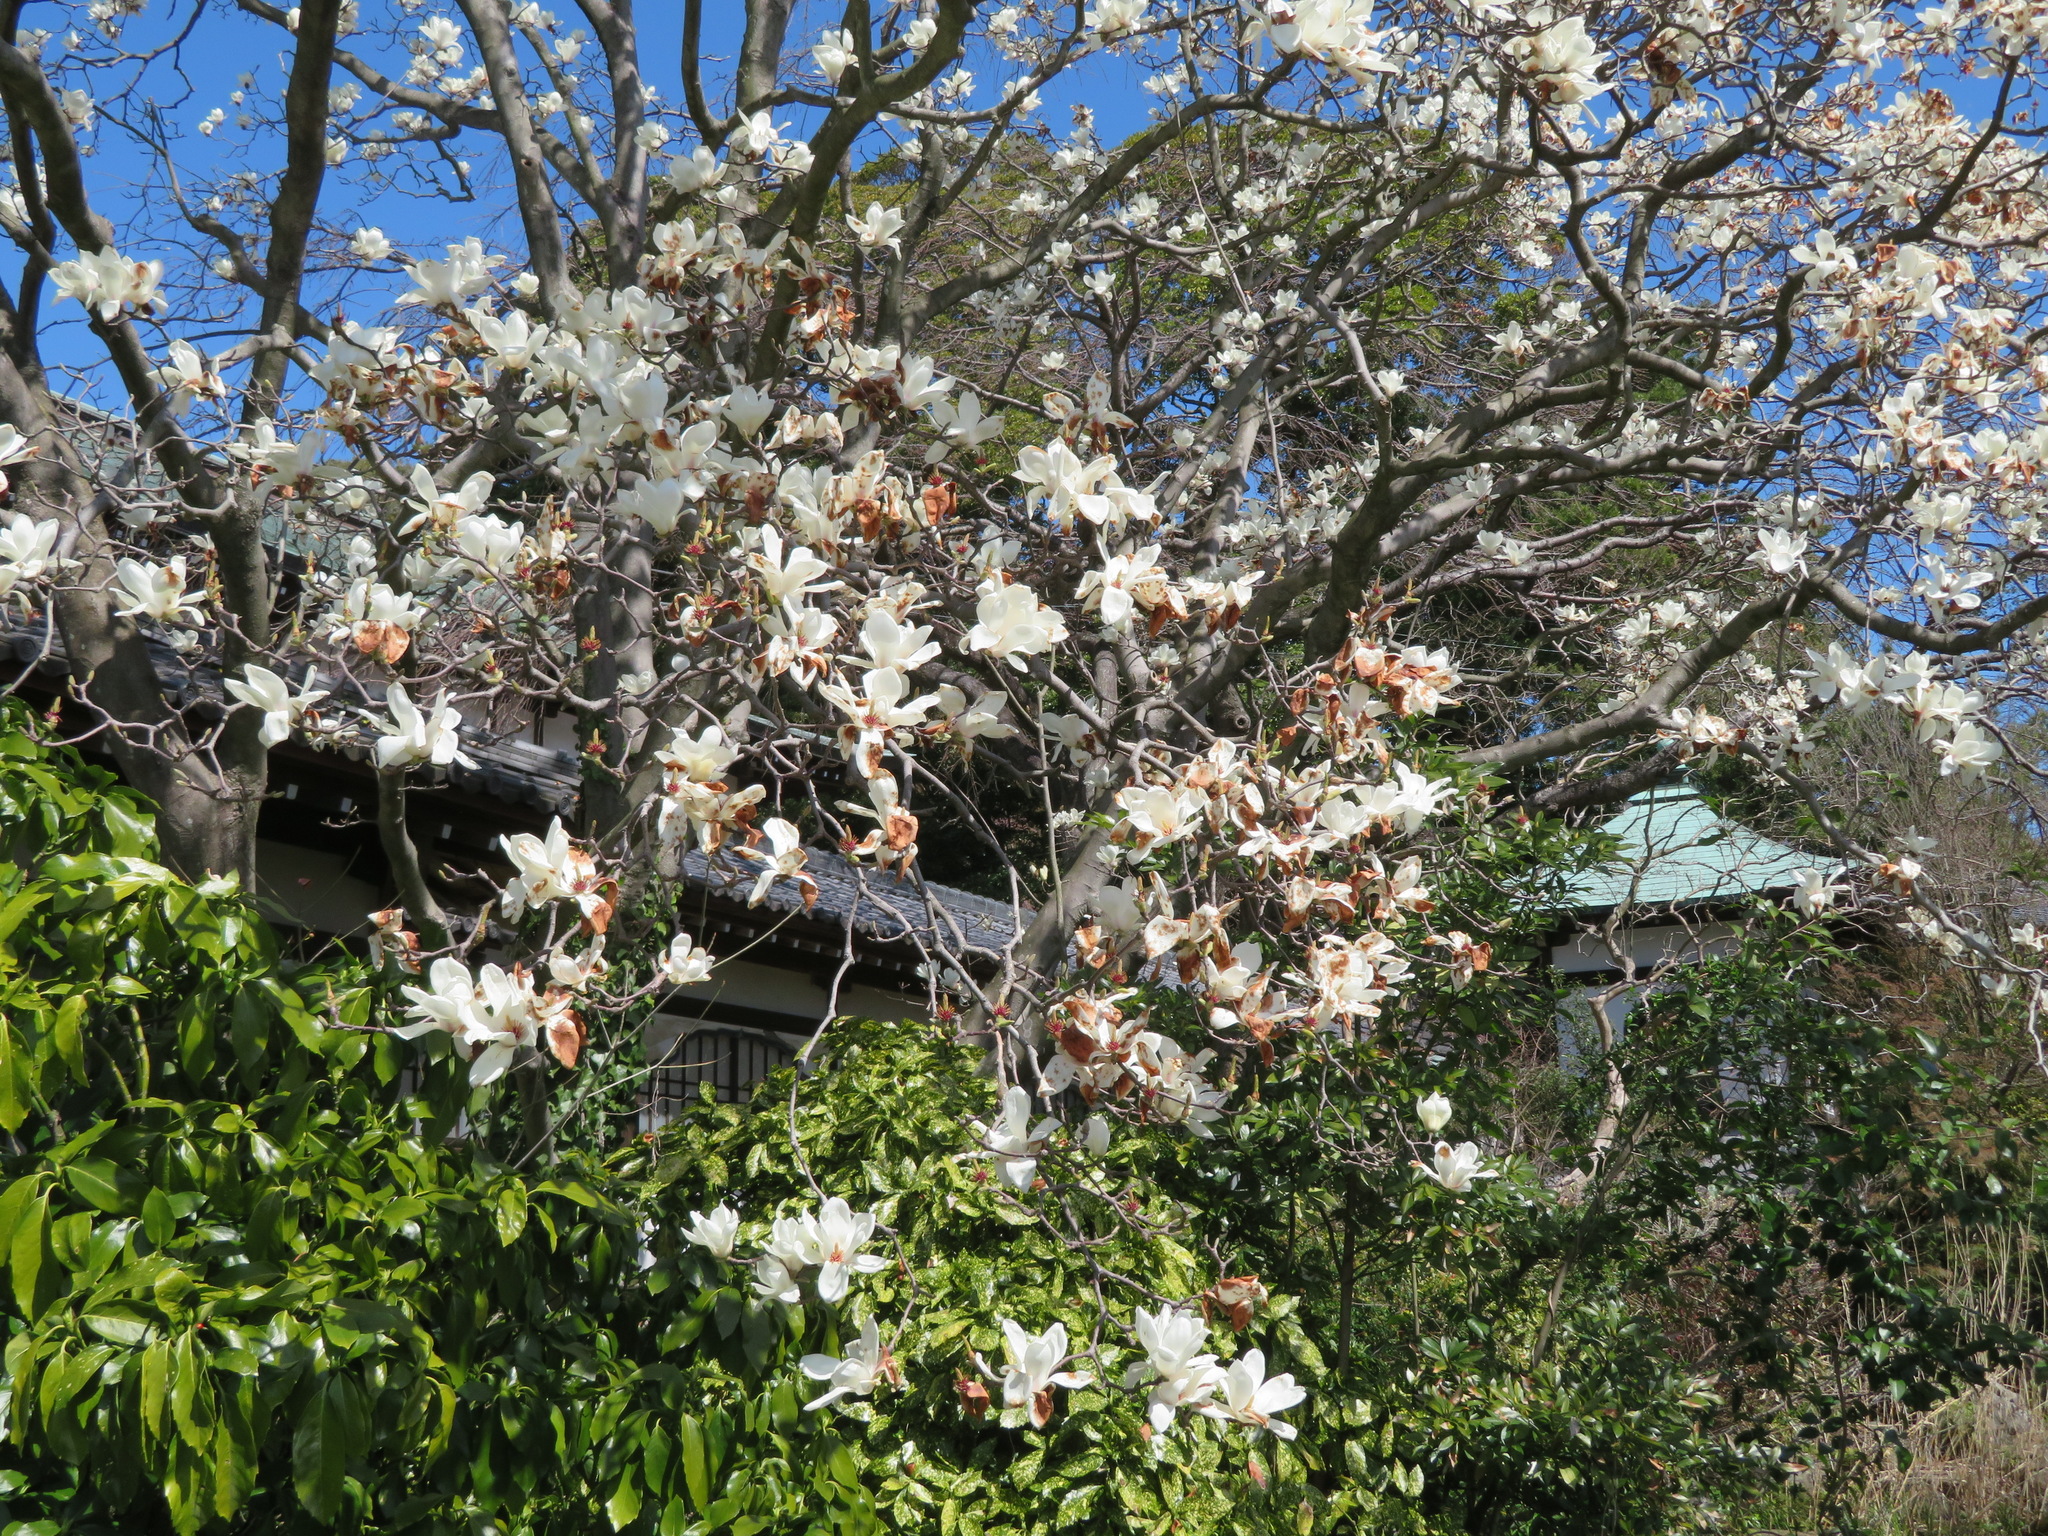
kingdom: Plantae
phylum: Tracheophyta
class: Magnoliopsida
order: Magnoliales
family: Magnoliaceae
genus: Magnolia
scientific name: Magnolia denudata
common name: Lilytree
